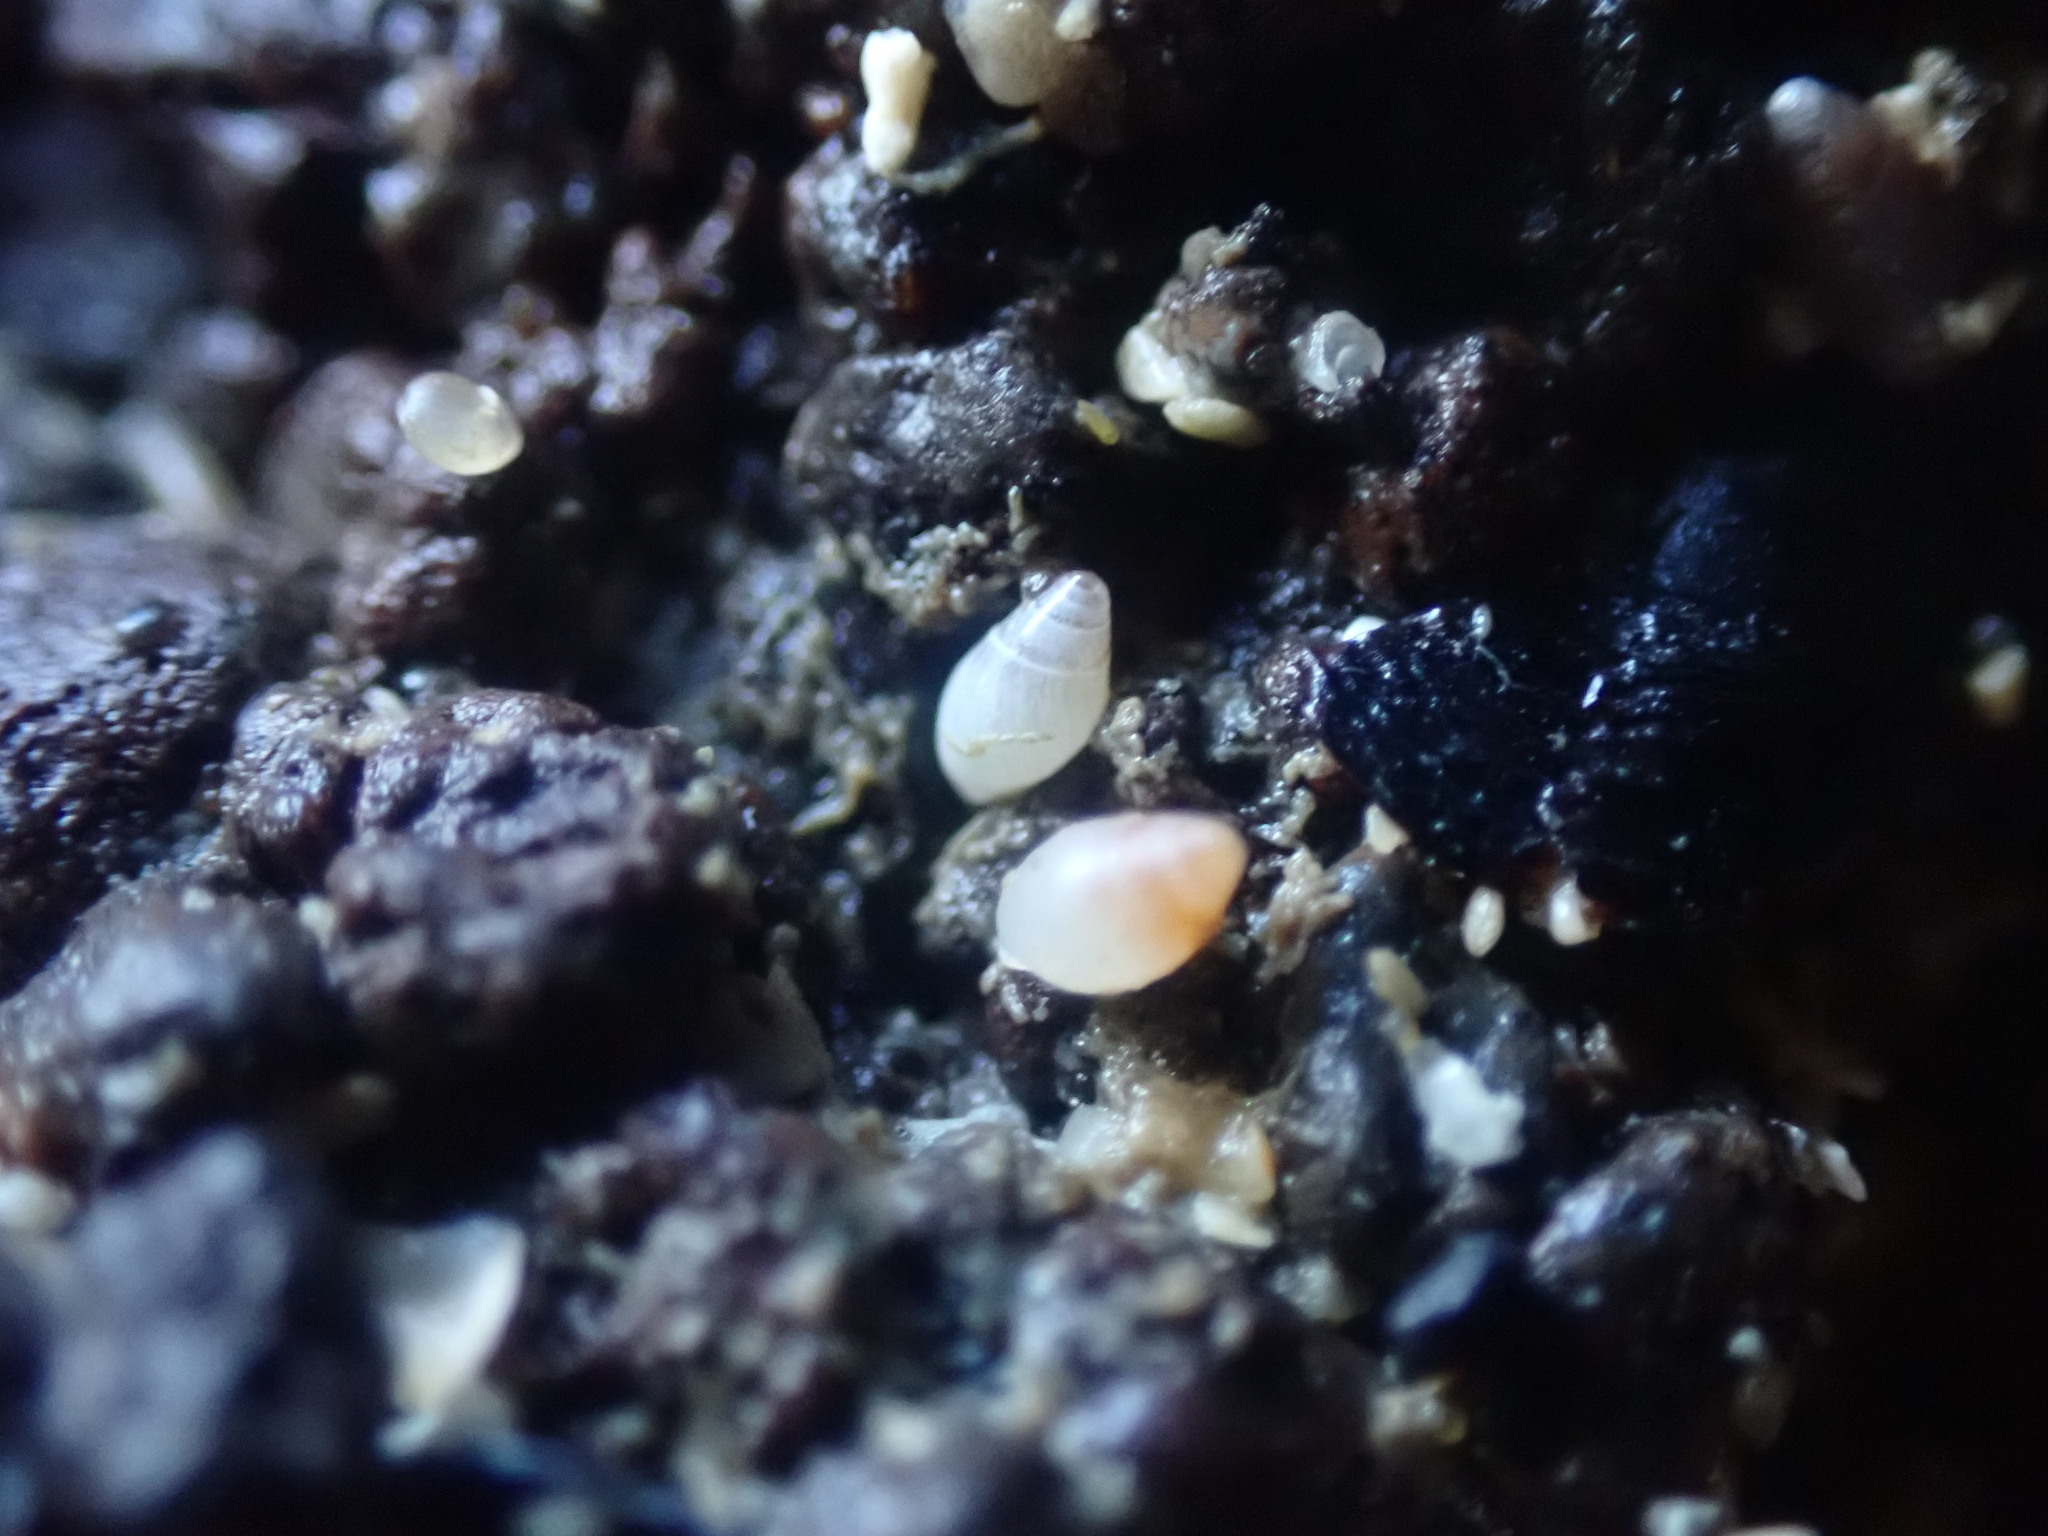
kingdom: Animalia
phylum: Mollusca
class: Gastropoda
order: Ellobiida
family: Ellobiidae
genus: Leuconopsis
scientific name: Leuconopsis obsoleta
